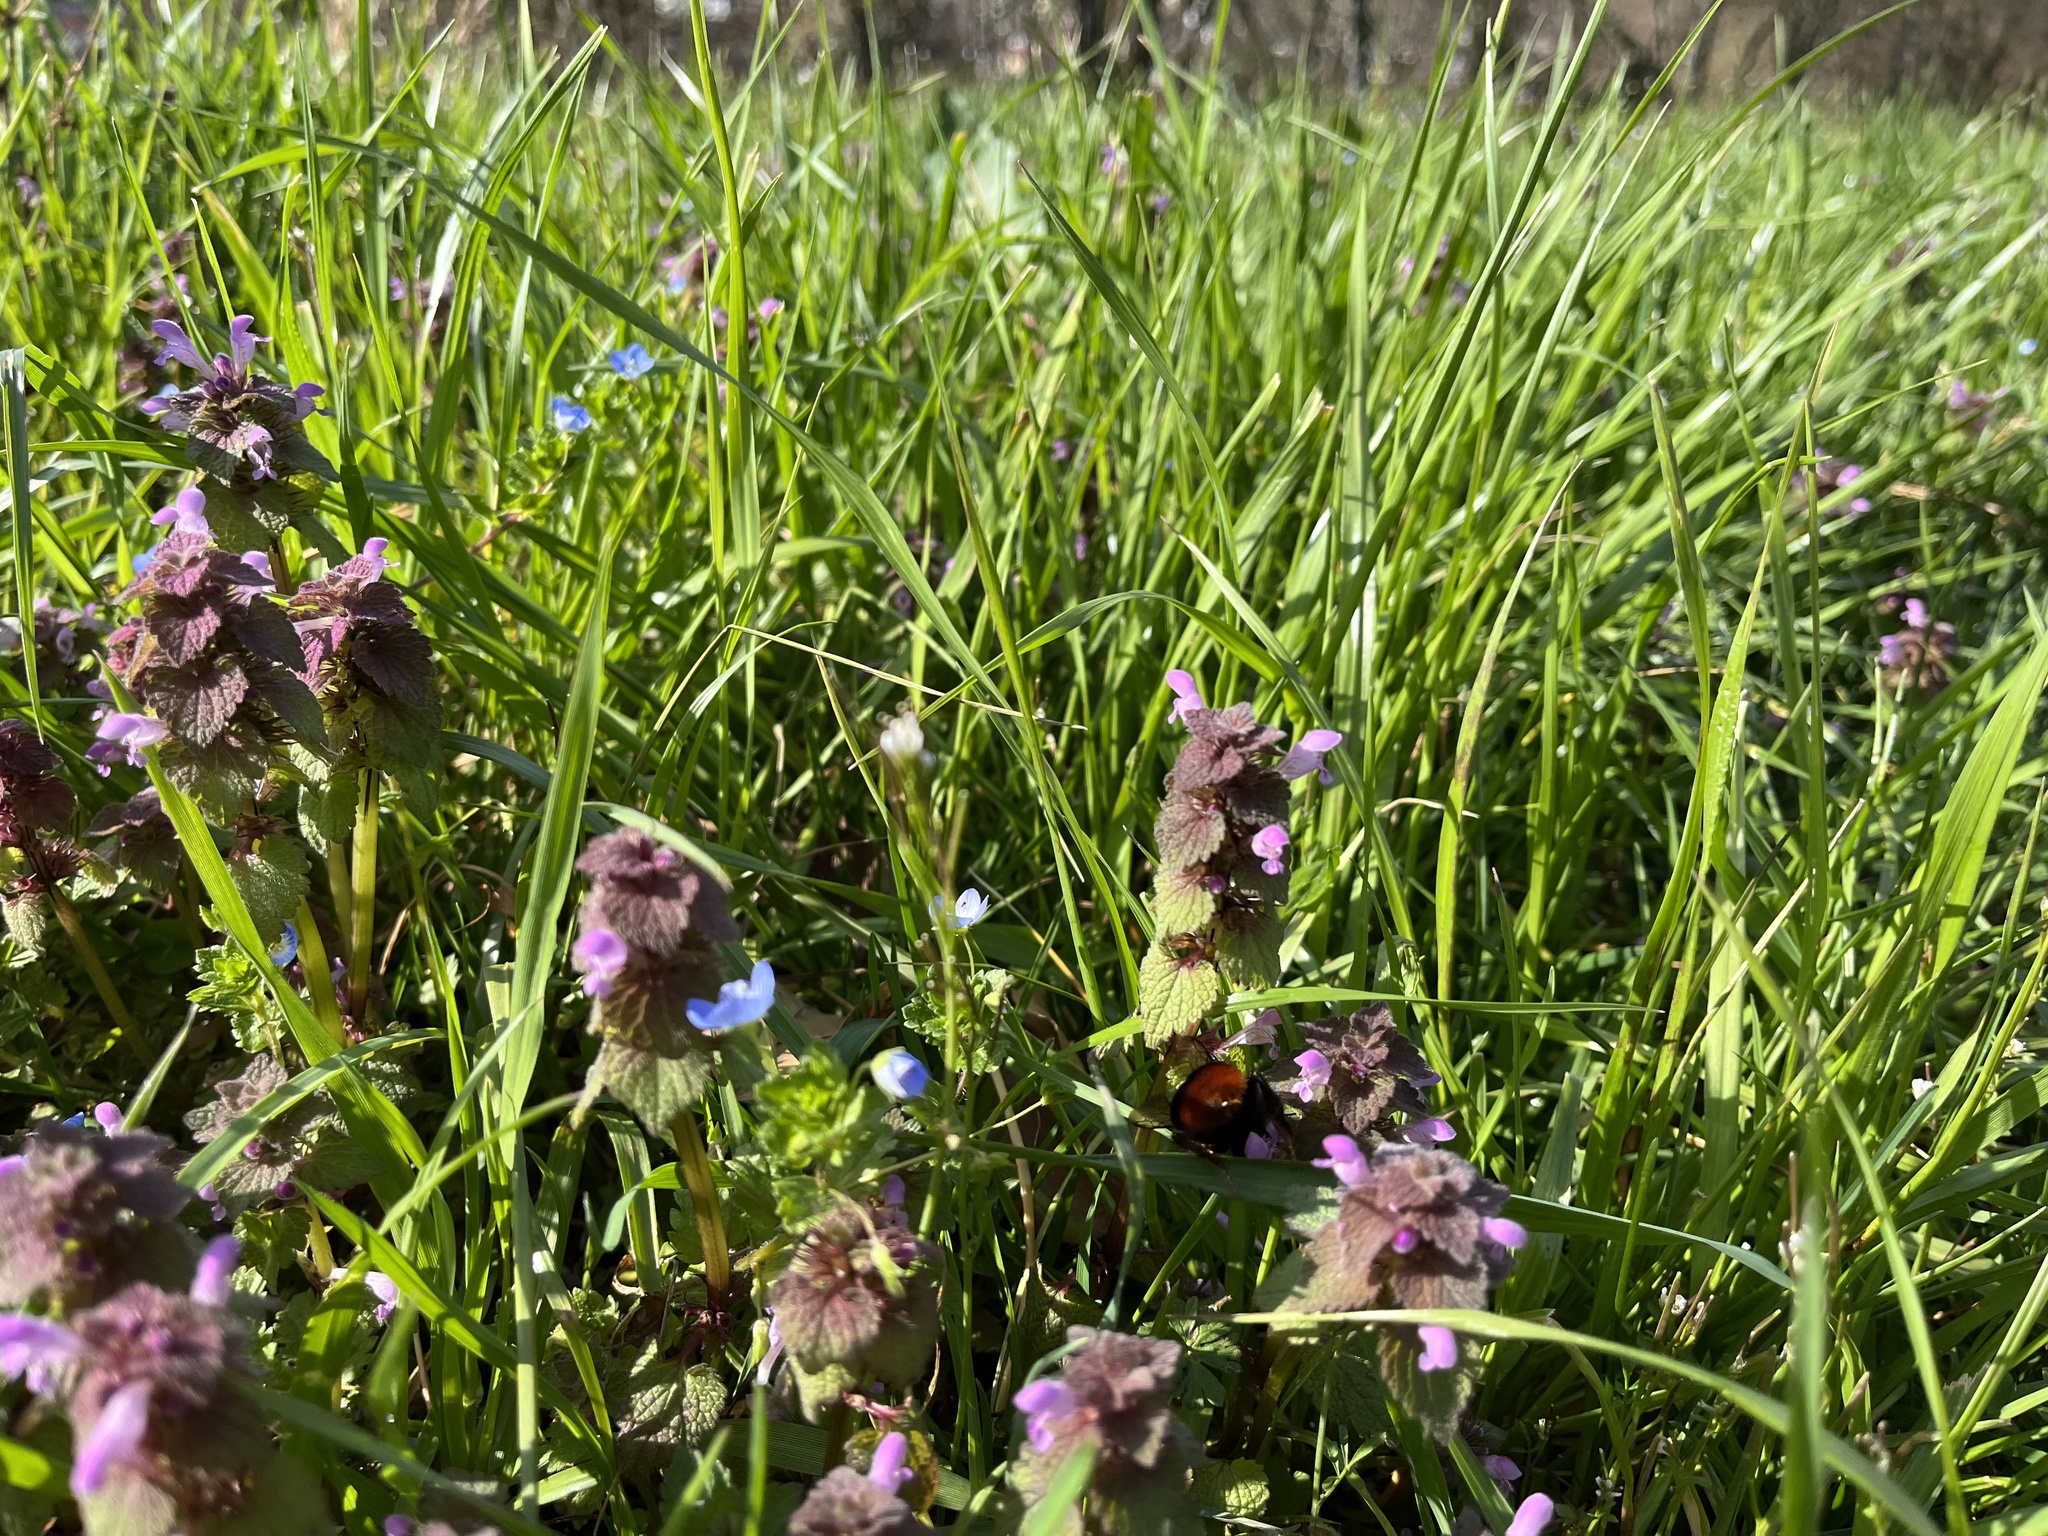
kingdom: Plantae
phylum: Tracheophyta
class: Magnoliopsida
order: Lamiales
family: Lamiaceae
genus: Lamium
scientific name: Lamium purpureum
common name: Red dead-nettle
